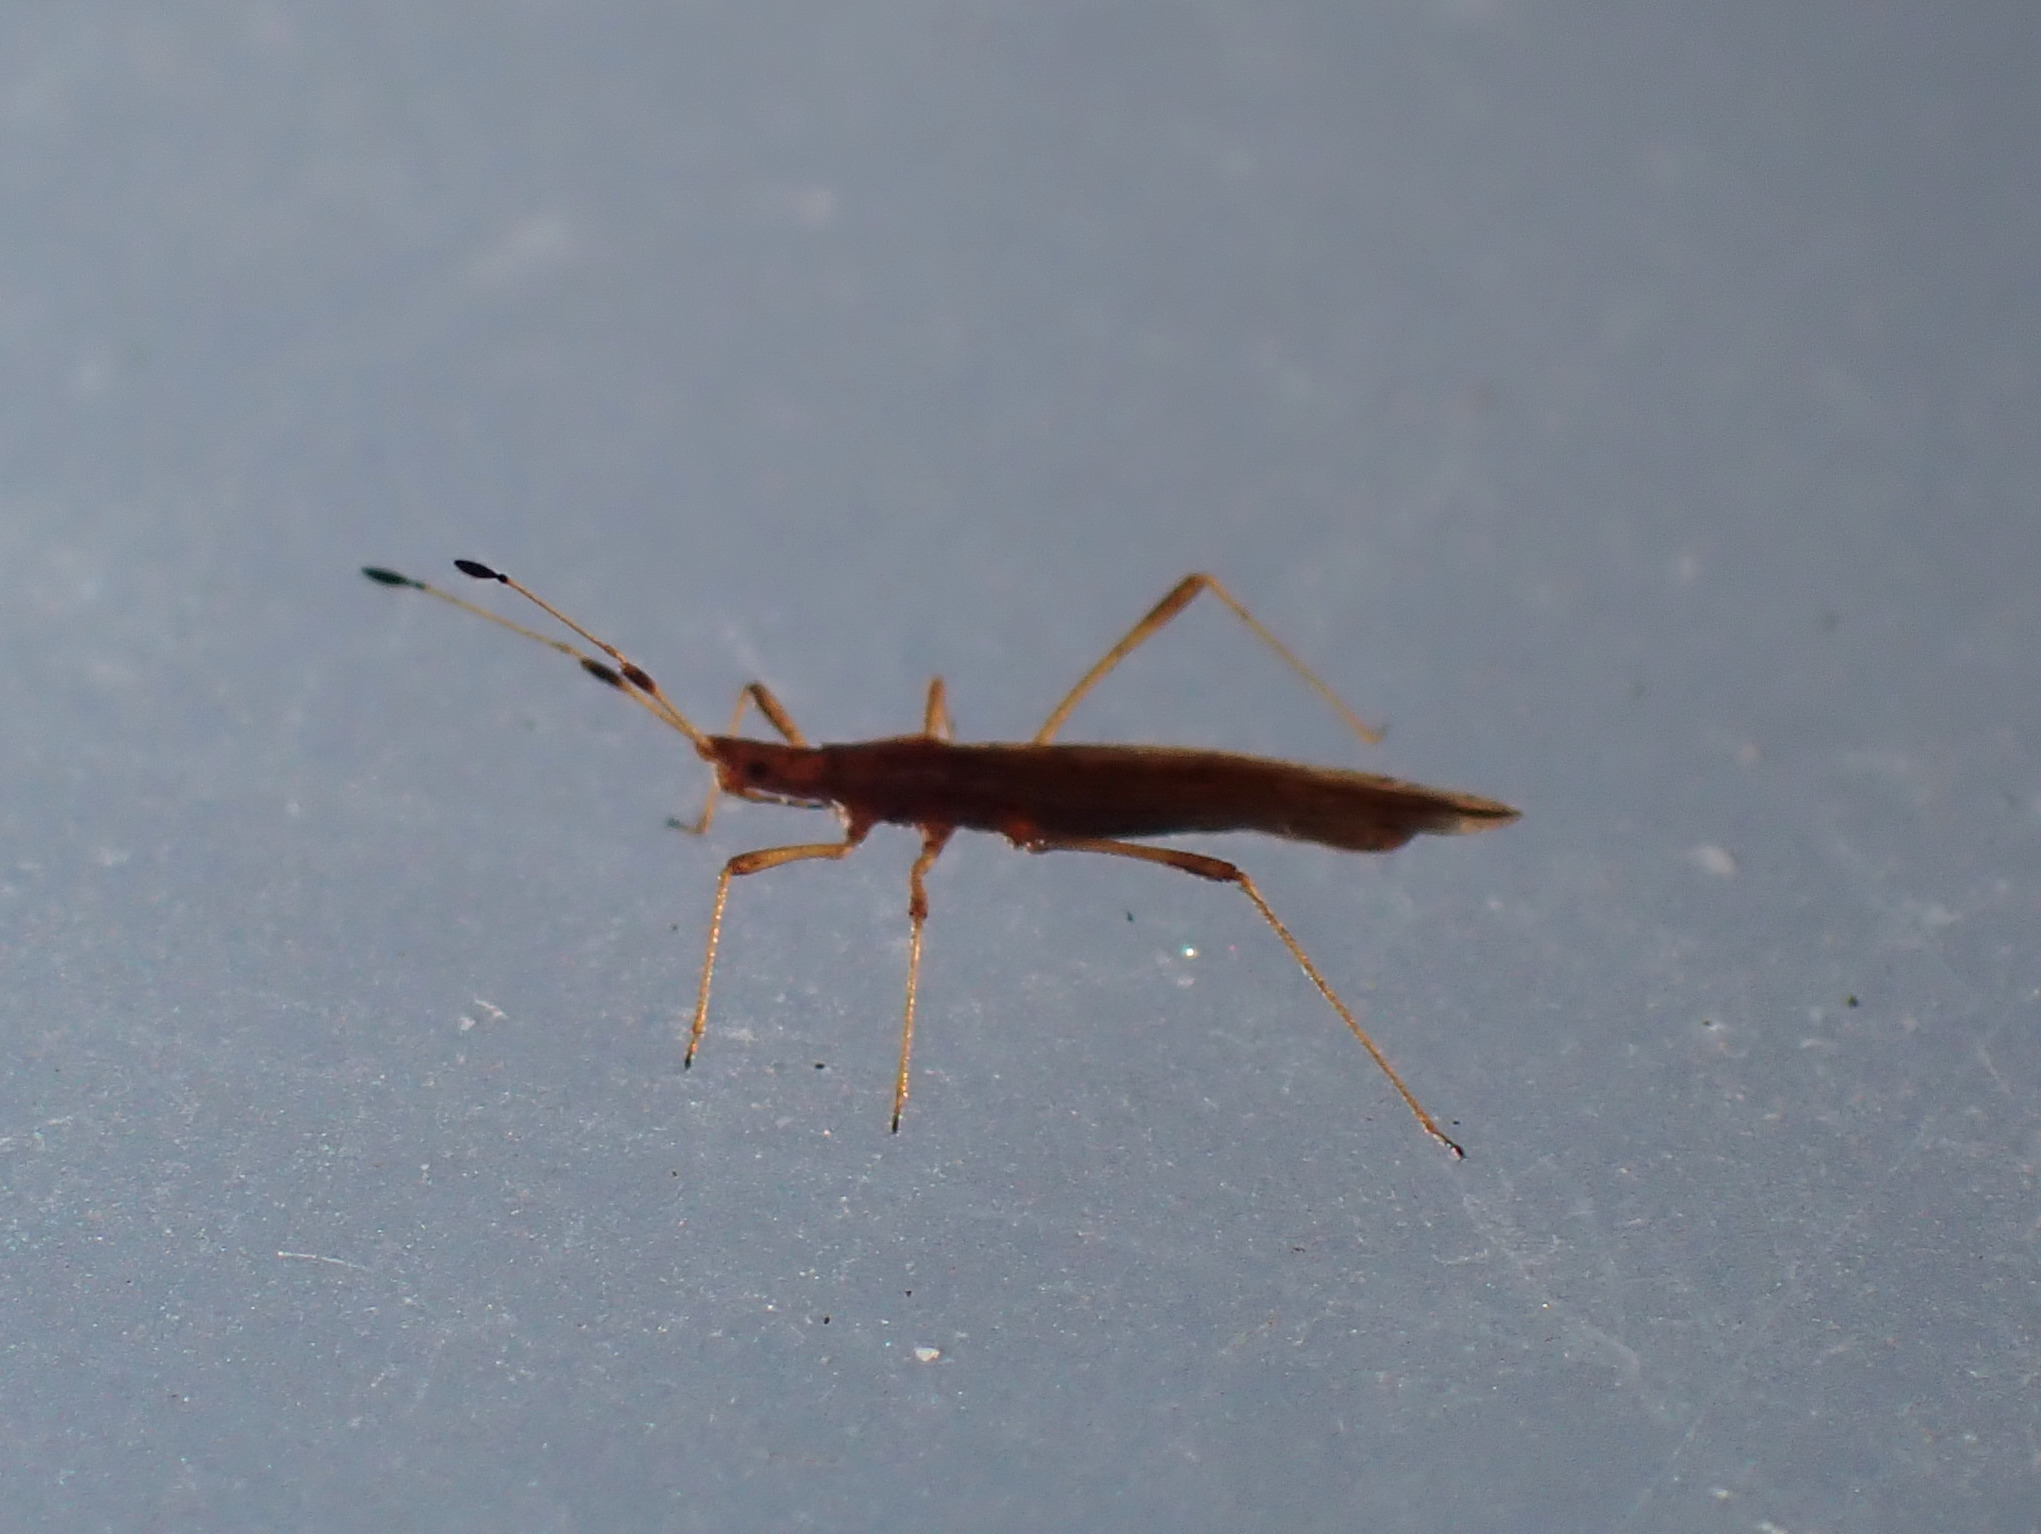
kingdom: Animalia
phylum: Arthropoda
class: Insecta
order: Hemiptera
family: Berytidae
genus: Berytinus
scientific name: Berytinus minor
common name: Stilt bug
